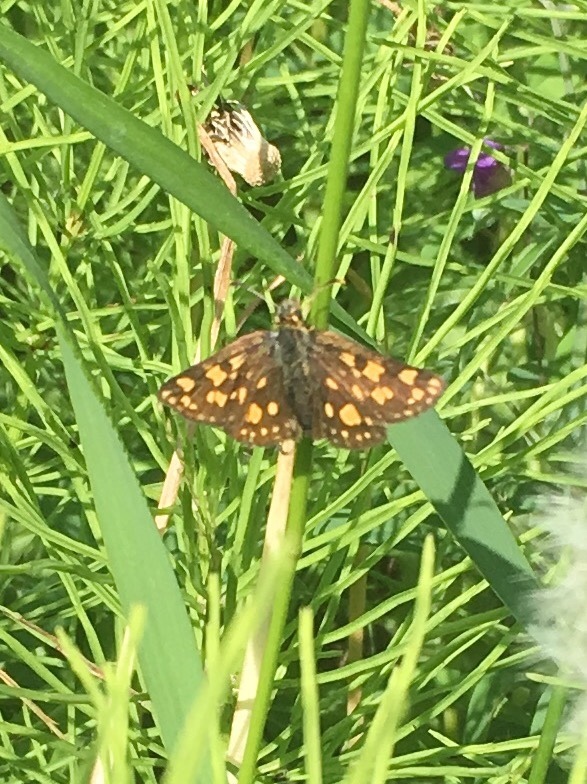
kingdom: Animalia
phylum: Arthropoda
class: Insecta
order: Lepidoptera
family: Hesperiidae
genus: Carterocephalus
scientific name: Carterocephalus skada
